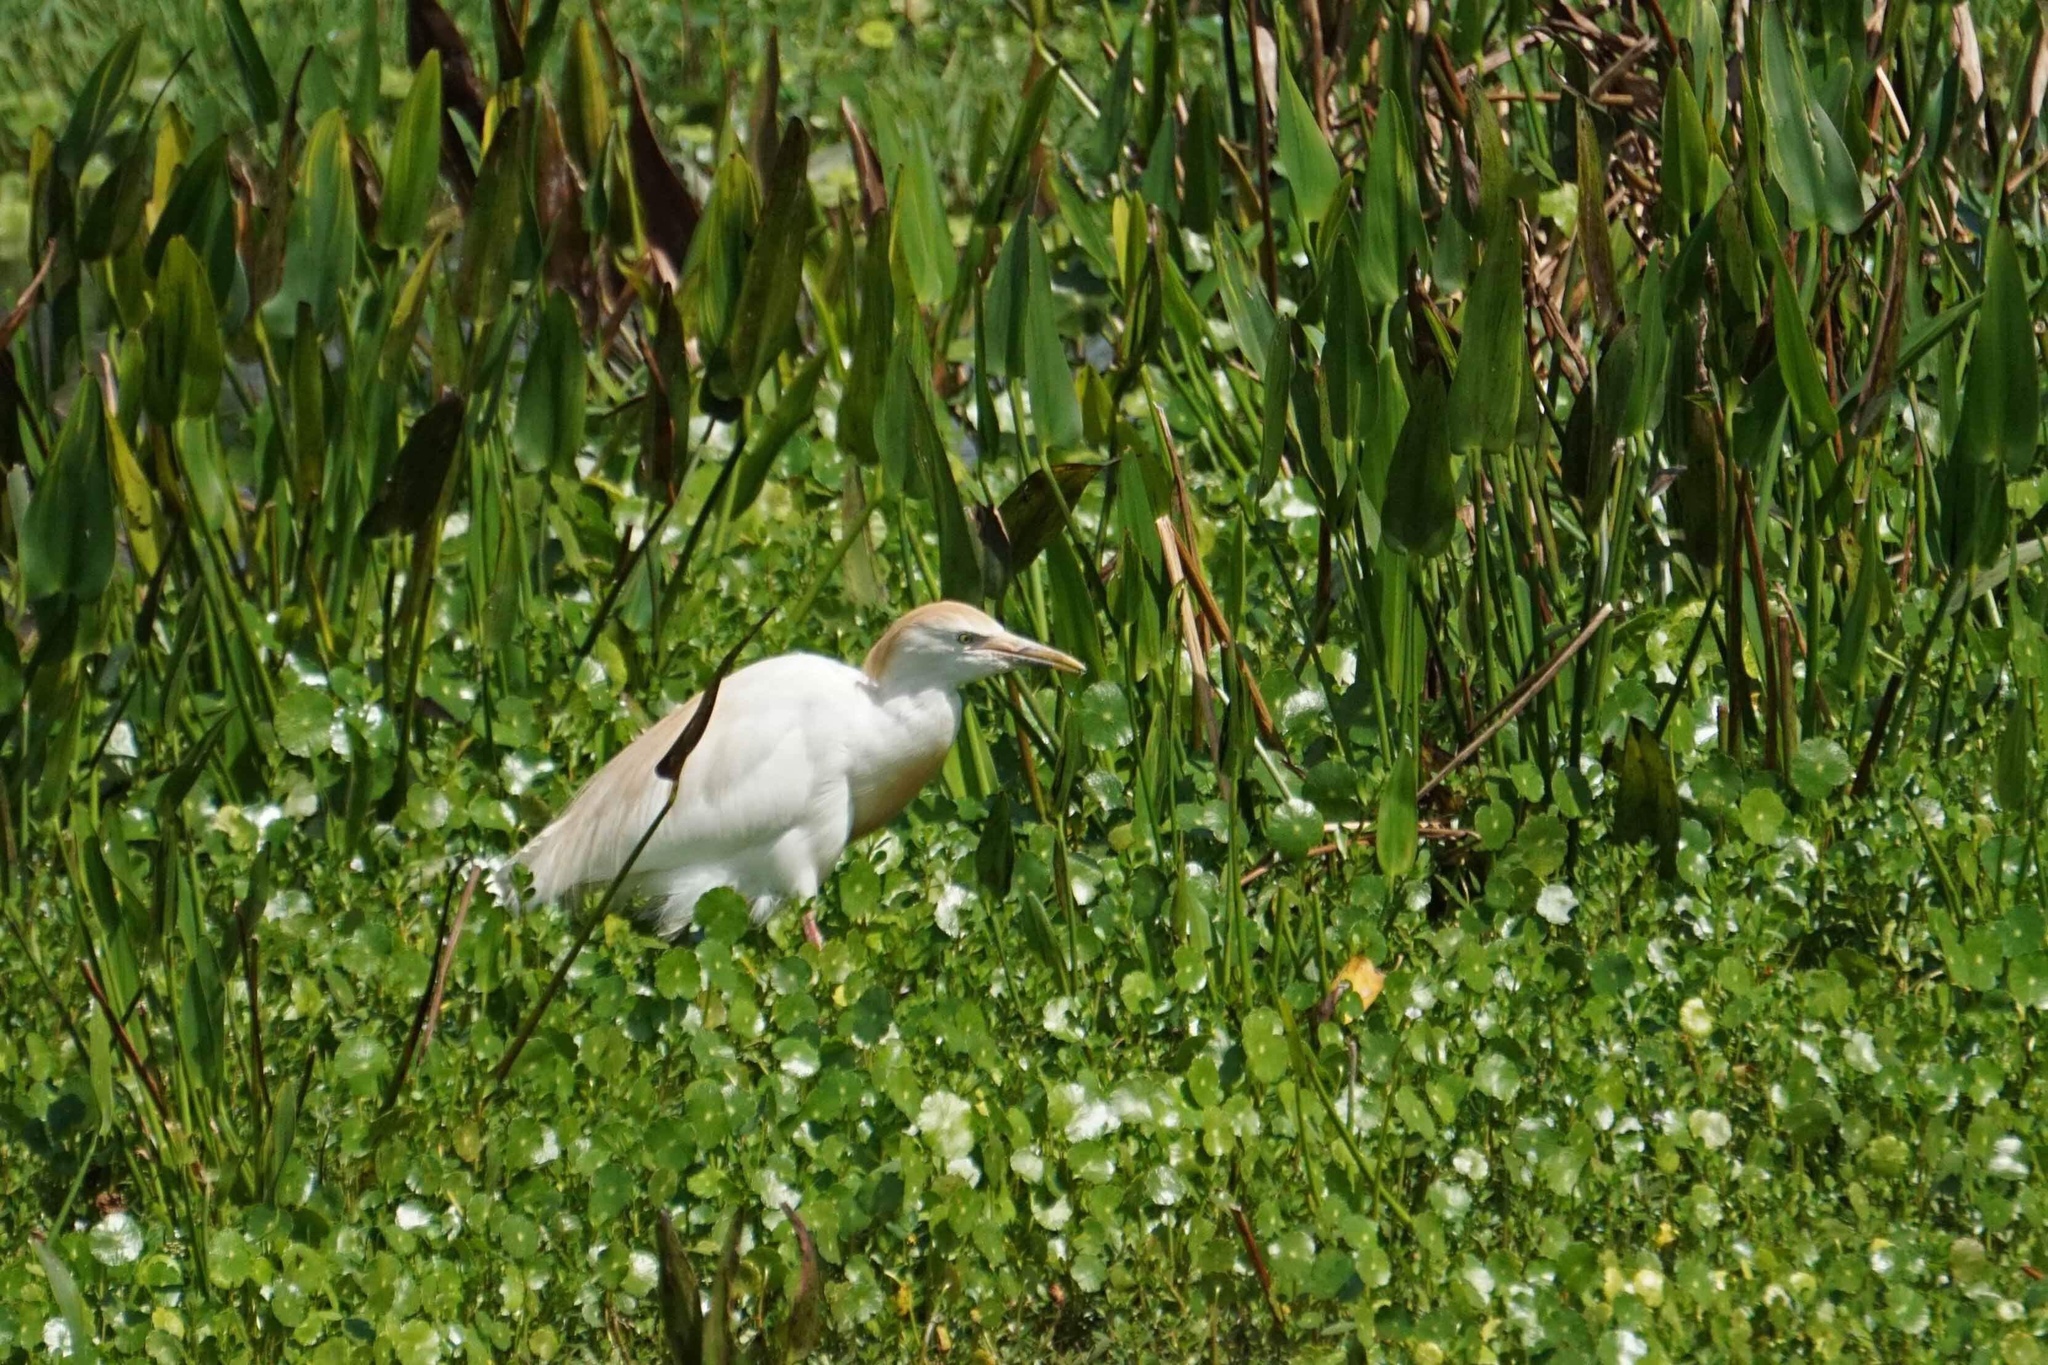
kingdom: Animalia
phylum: Chordata
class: Aves
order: Pelecaniformes
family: Ardeidae
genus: Bubulcus
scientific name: Bubulcus ibis
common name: Cattle egret
